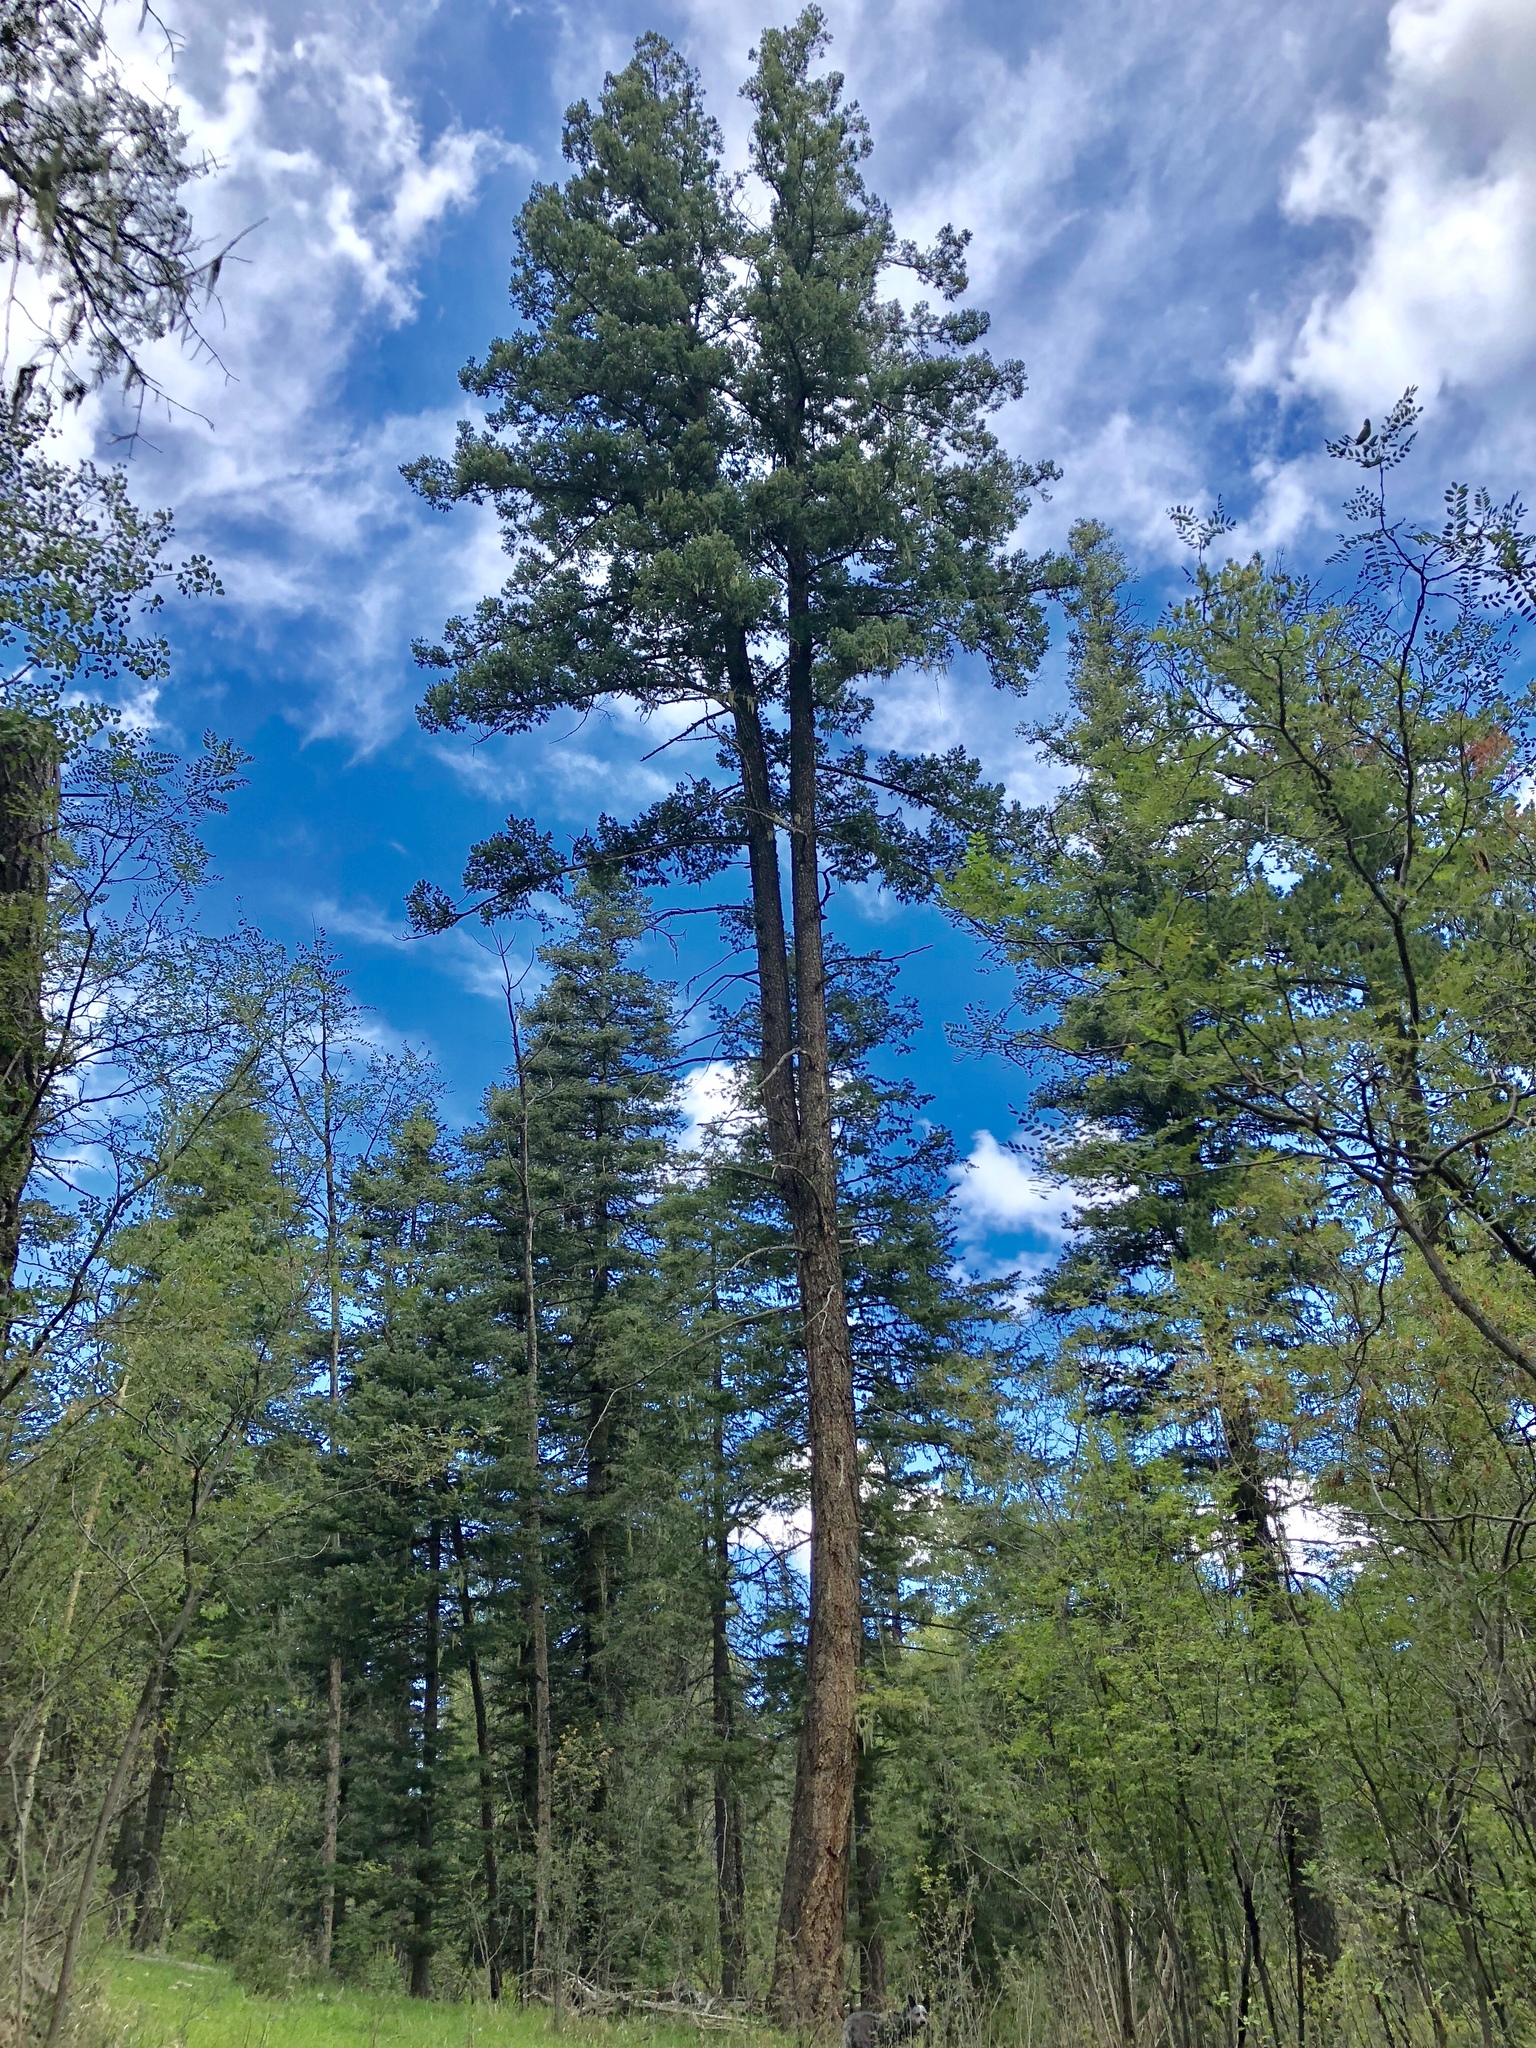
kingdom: Plantae
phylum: Tracheophyta
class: Pinopsida
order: Pinales
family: Pinaceae
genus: Pseudotsuga
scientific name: Pseudotsuga menziesii
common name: Douglas fir
